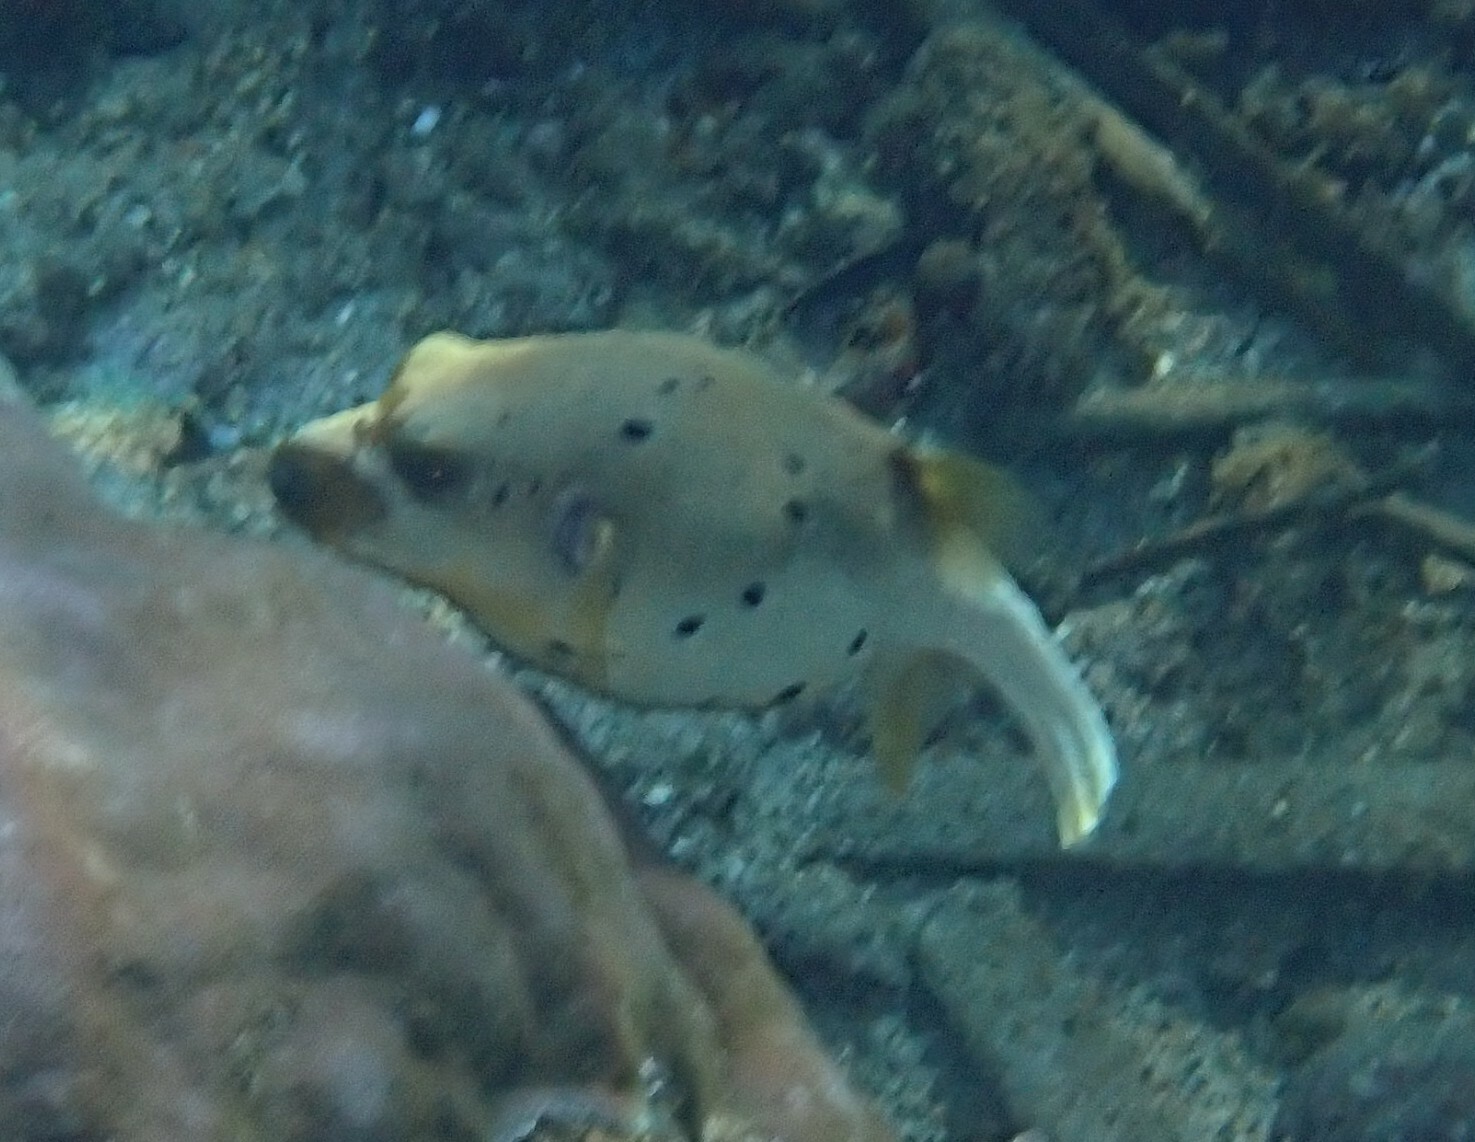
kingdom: Animalia
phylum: Chordata
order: Tetraodontiformes
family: Tetraodontidae
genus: Arothron
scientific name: Arothron nigropunctatus
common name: Black spotted blow fish
